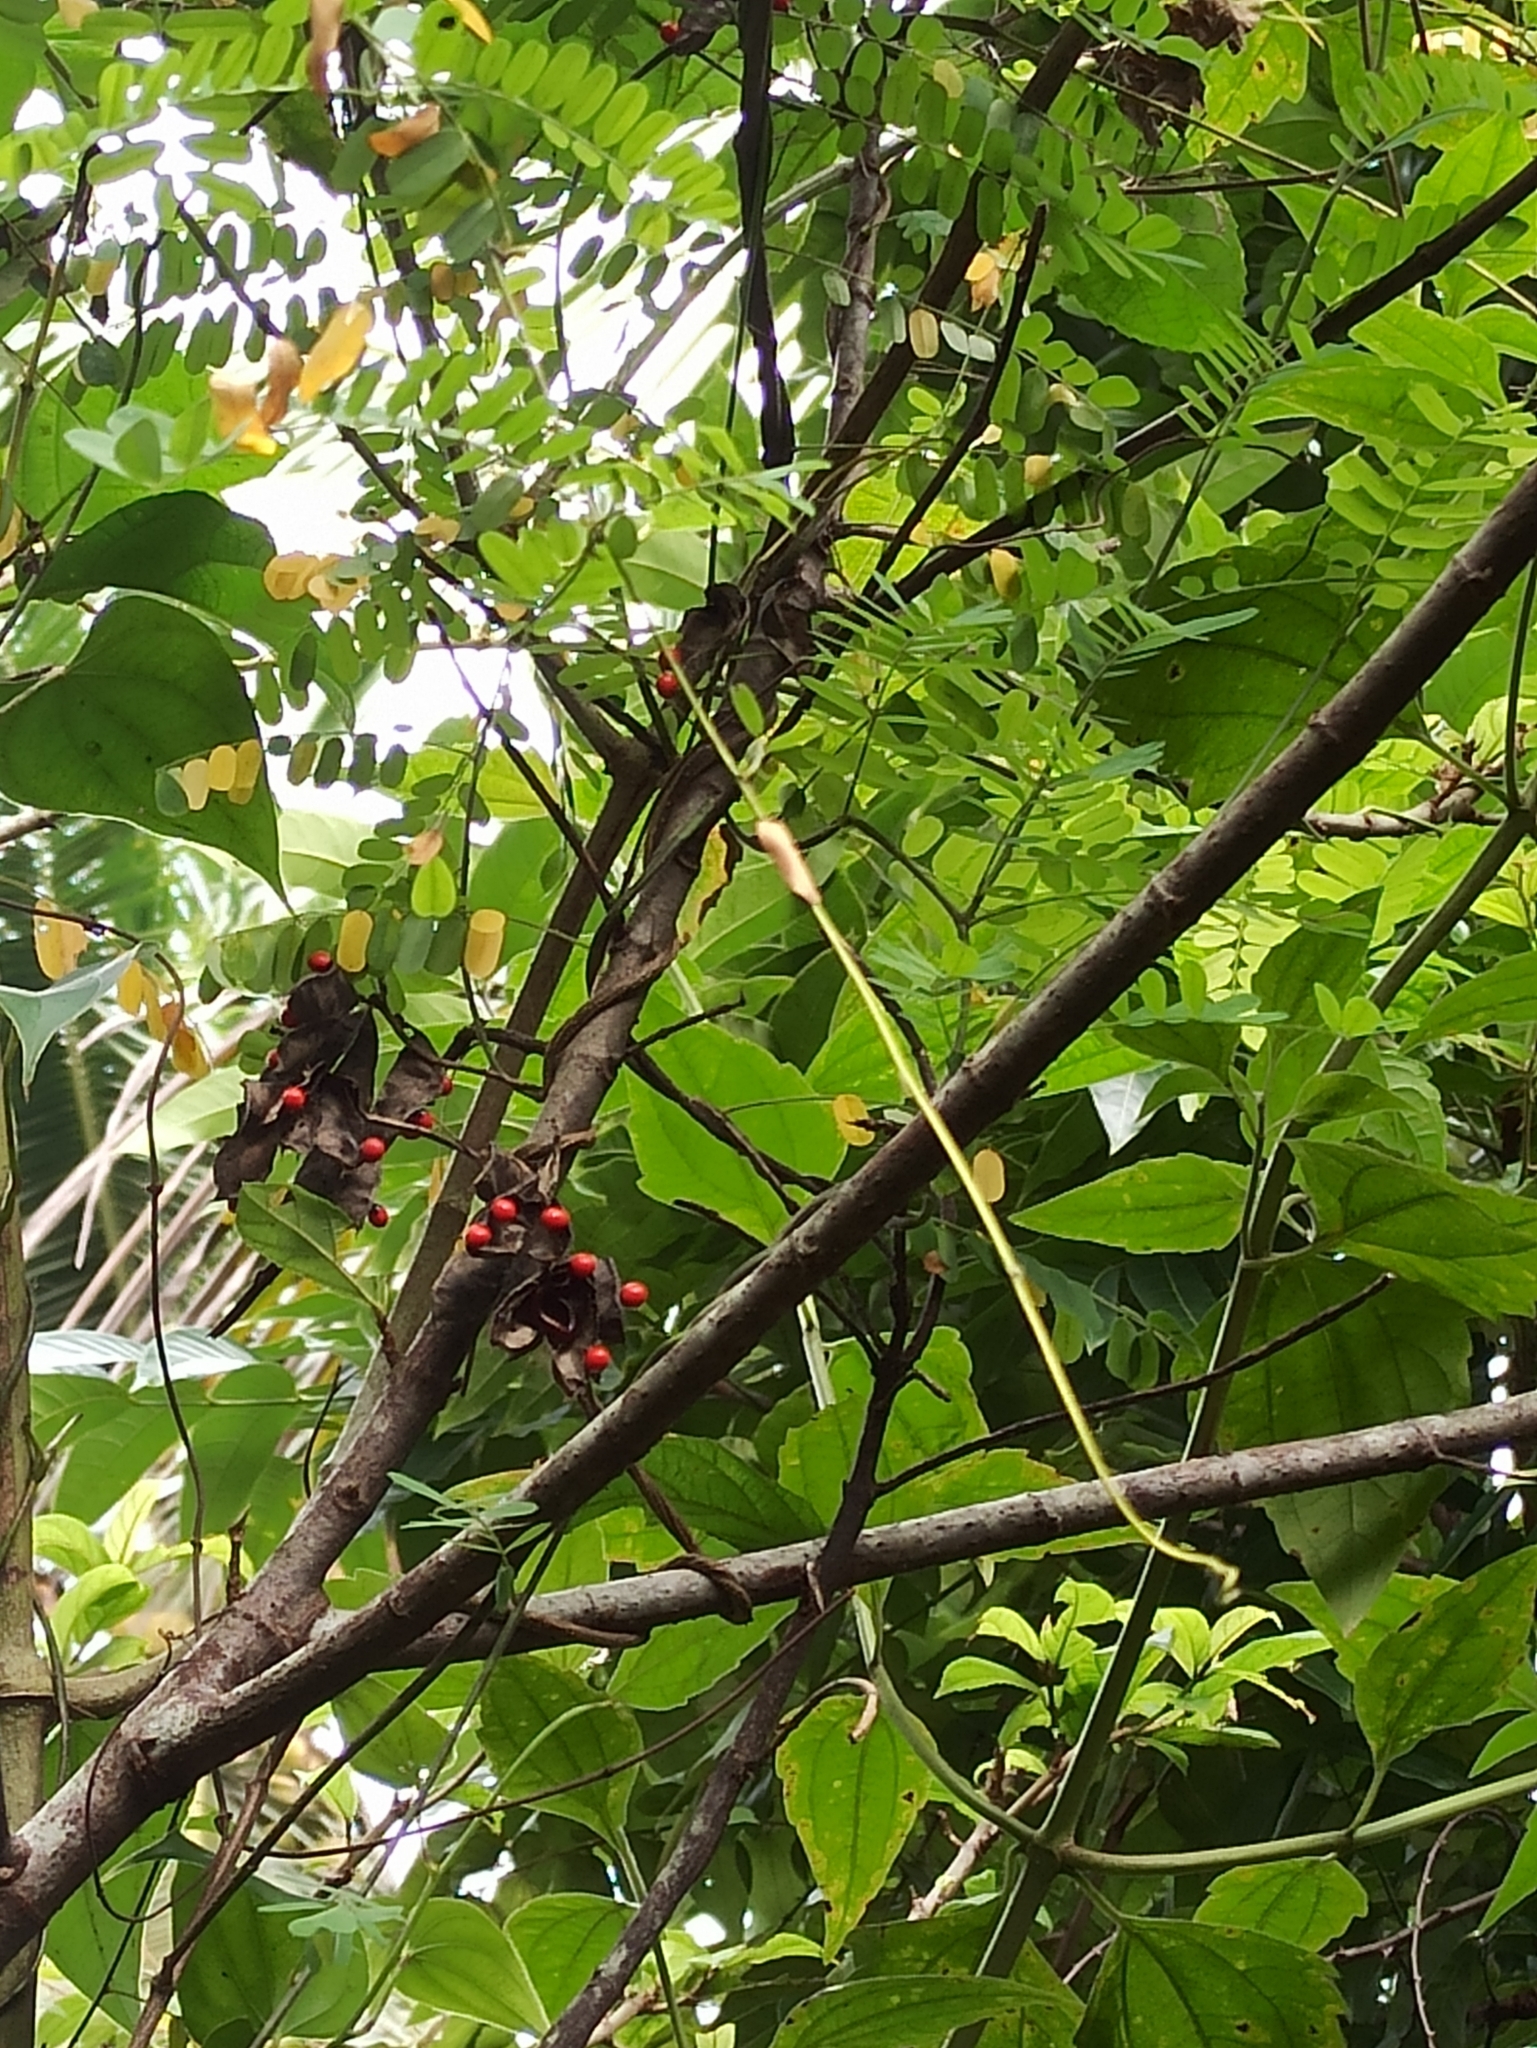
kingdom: Plantae
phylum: Tracheophyta
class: Magnoliopsida
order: Fabales
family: Fabaceae
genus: Abrus
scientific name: Abrus precatorius
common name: Rosarypea
